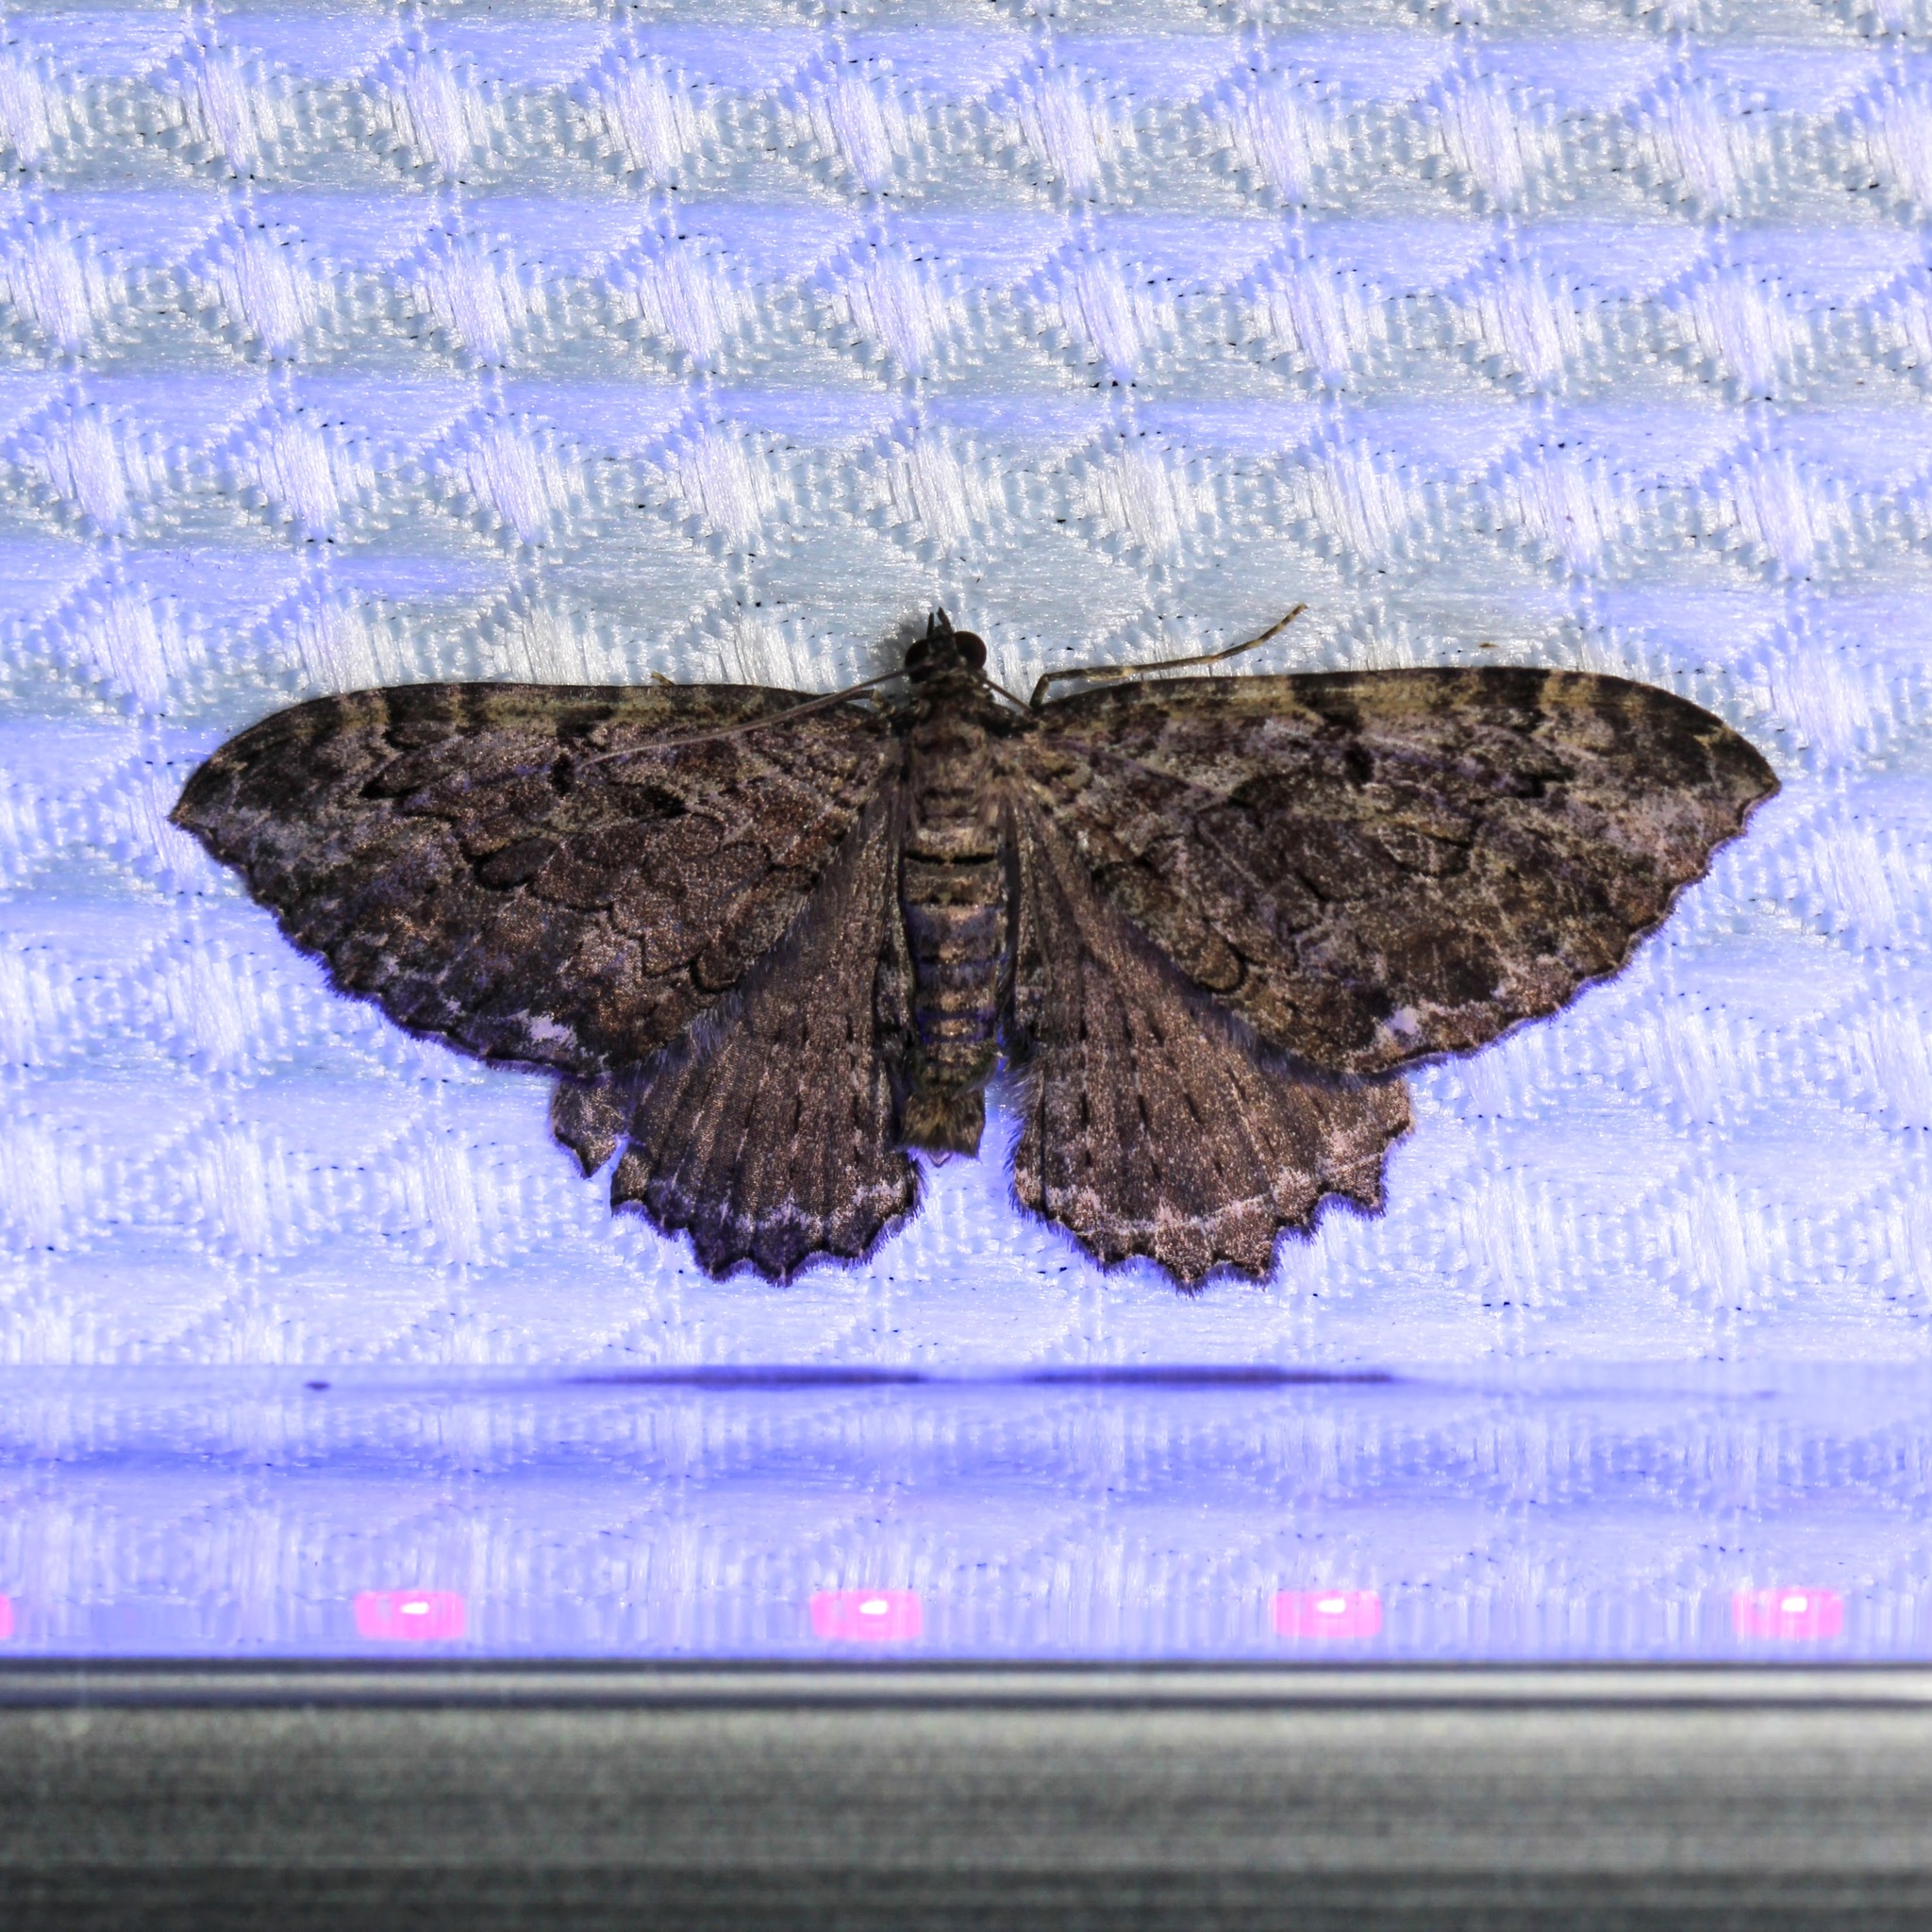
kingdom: Animalia
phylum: Arthropoda
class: Insecta
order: Lepidoptera
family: Geometridae
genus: Rheumaptera
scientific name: Rheumaptera
